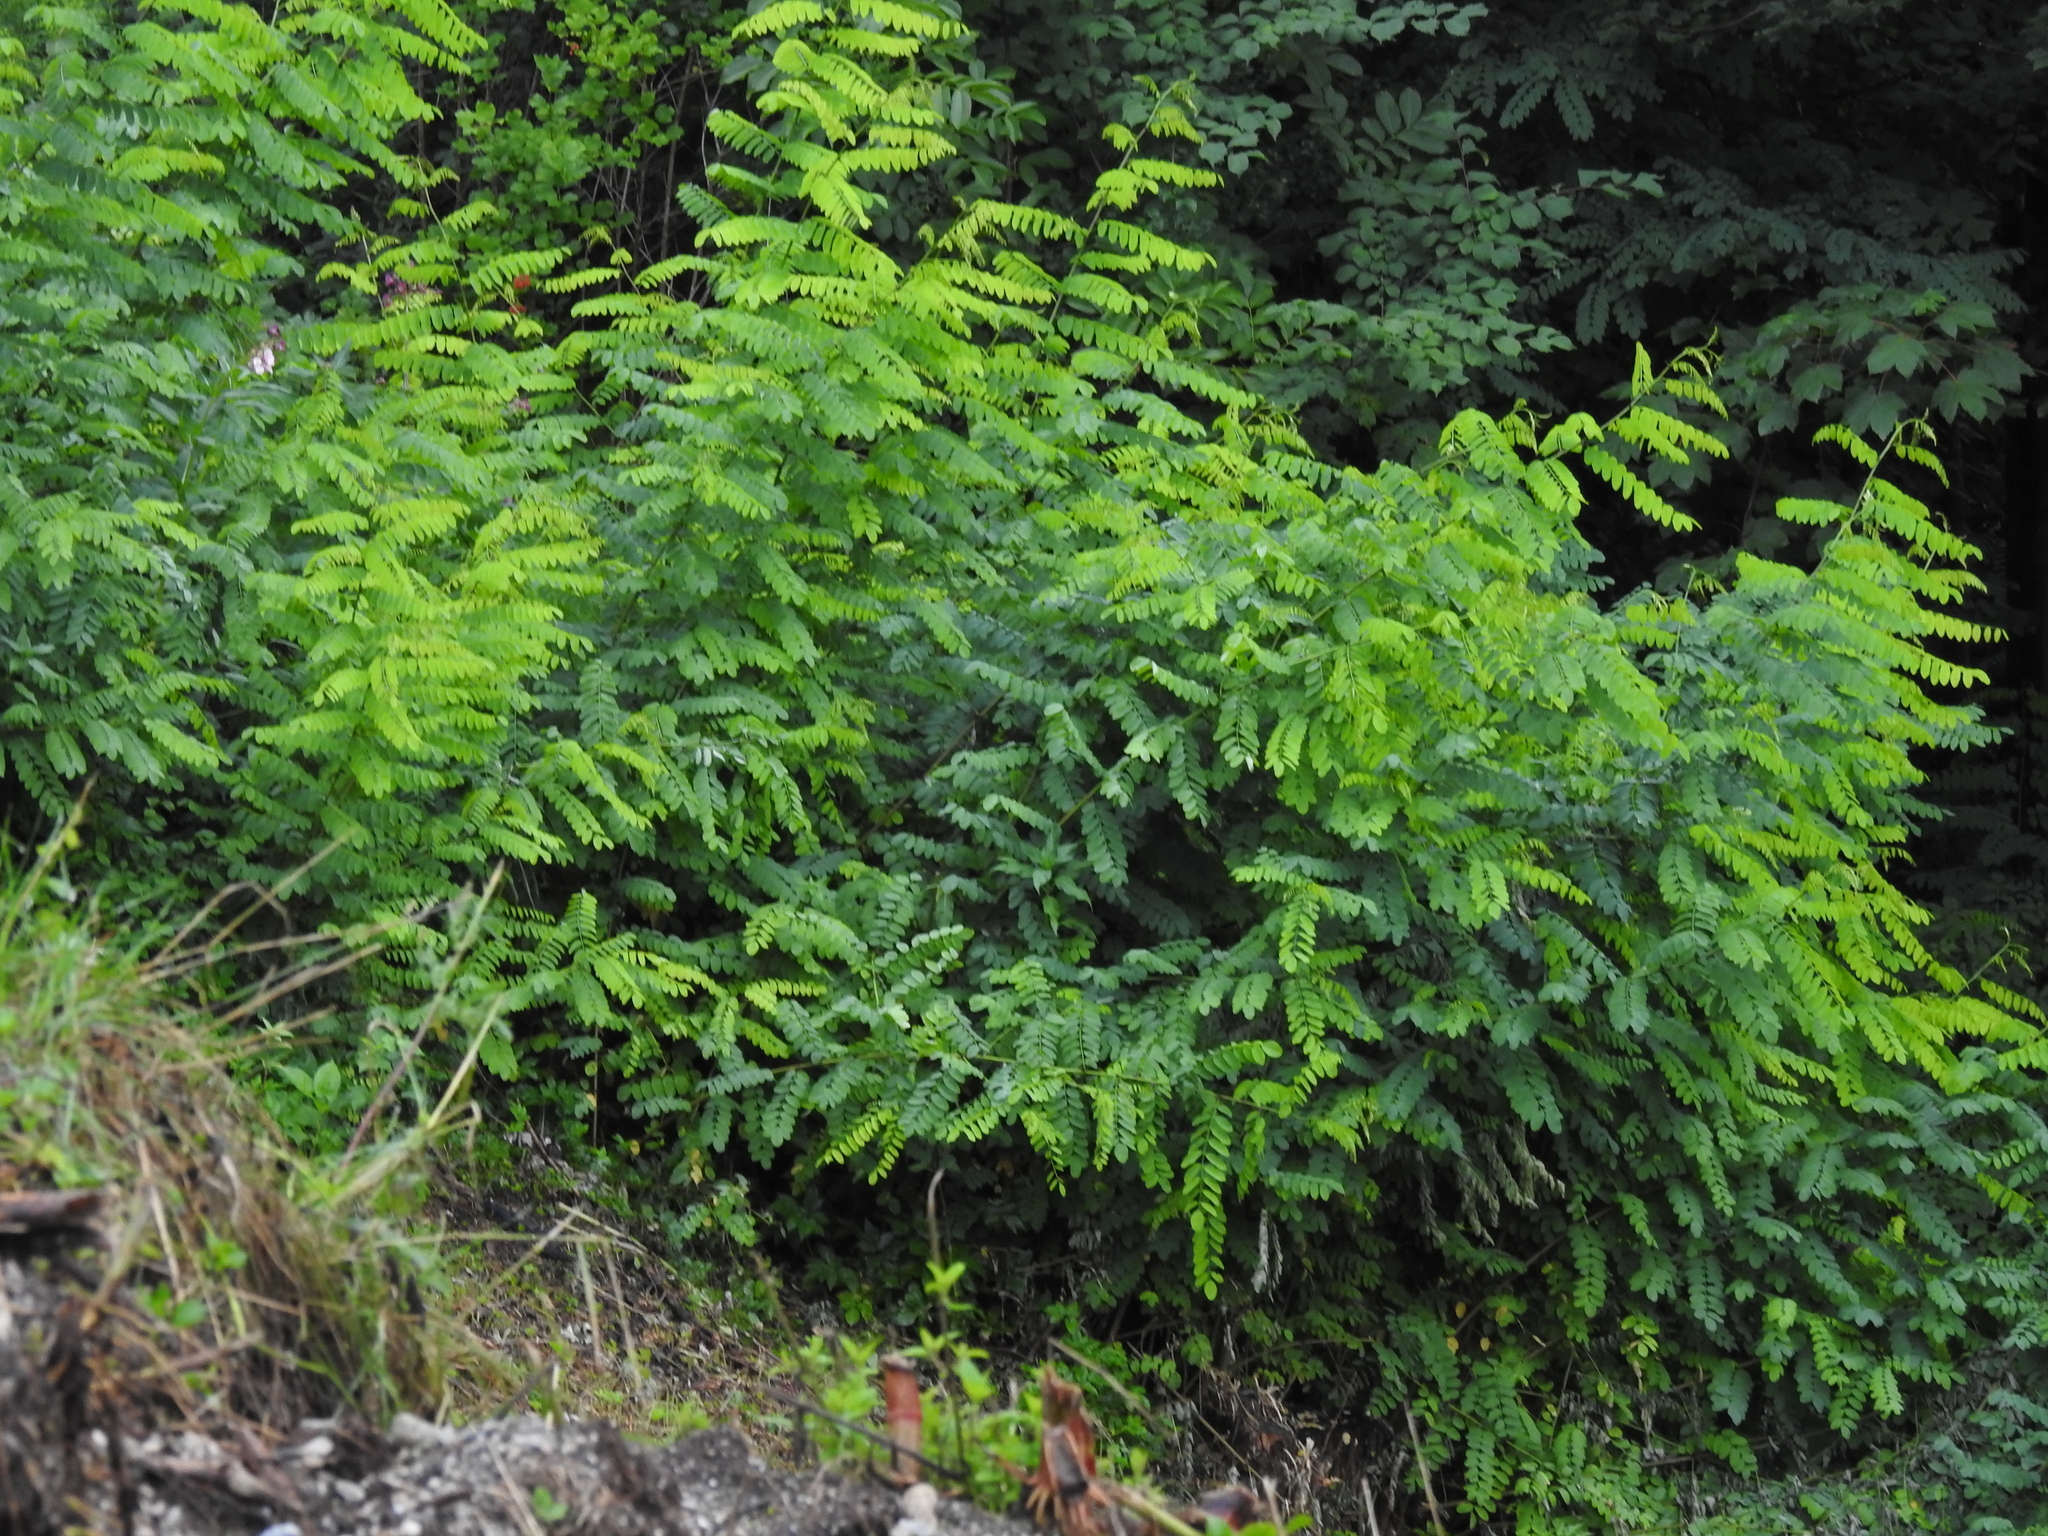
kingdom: Plantae
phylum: Tracheophyta
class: Magnoliopsida
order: Fabales
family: Fabaceae
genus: Robinia
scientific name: Robinia pseudoacacia
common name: Black locust
